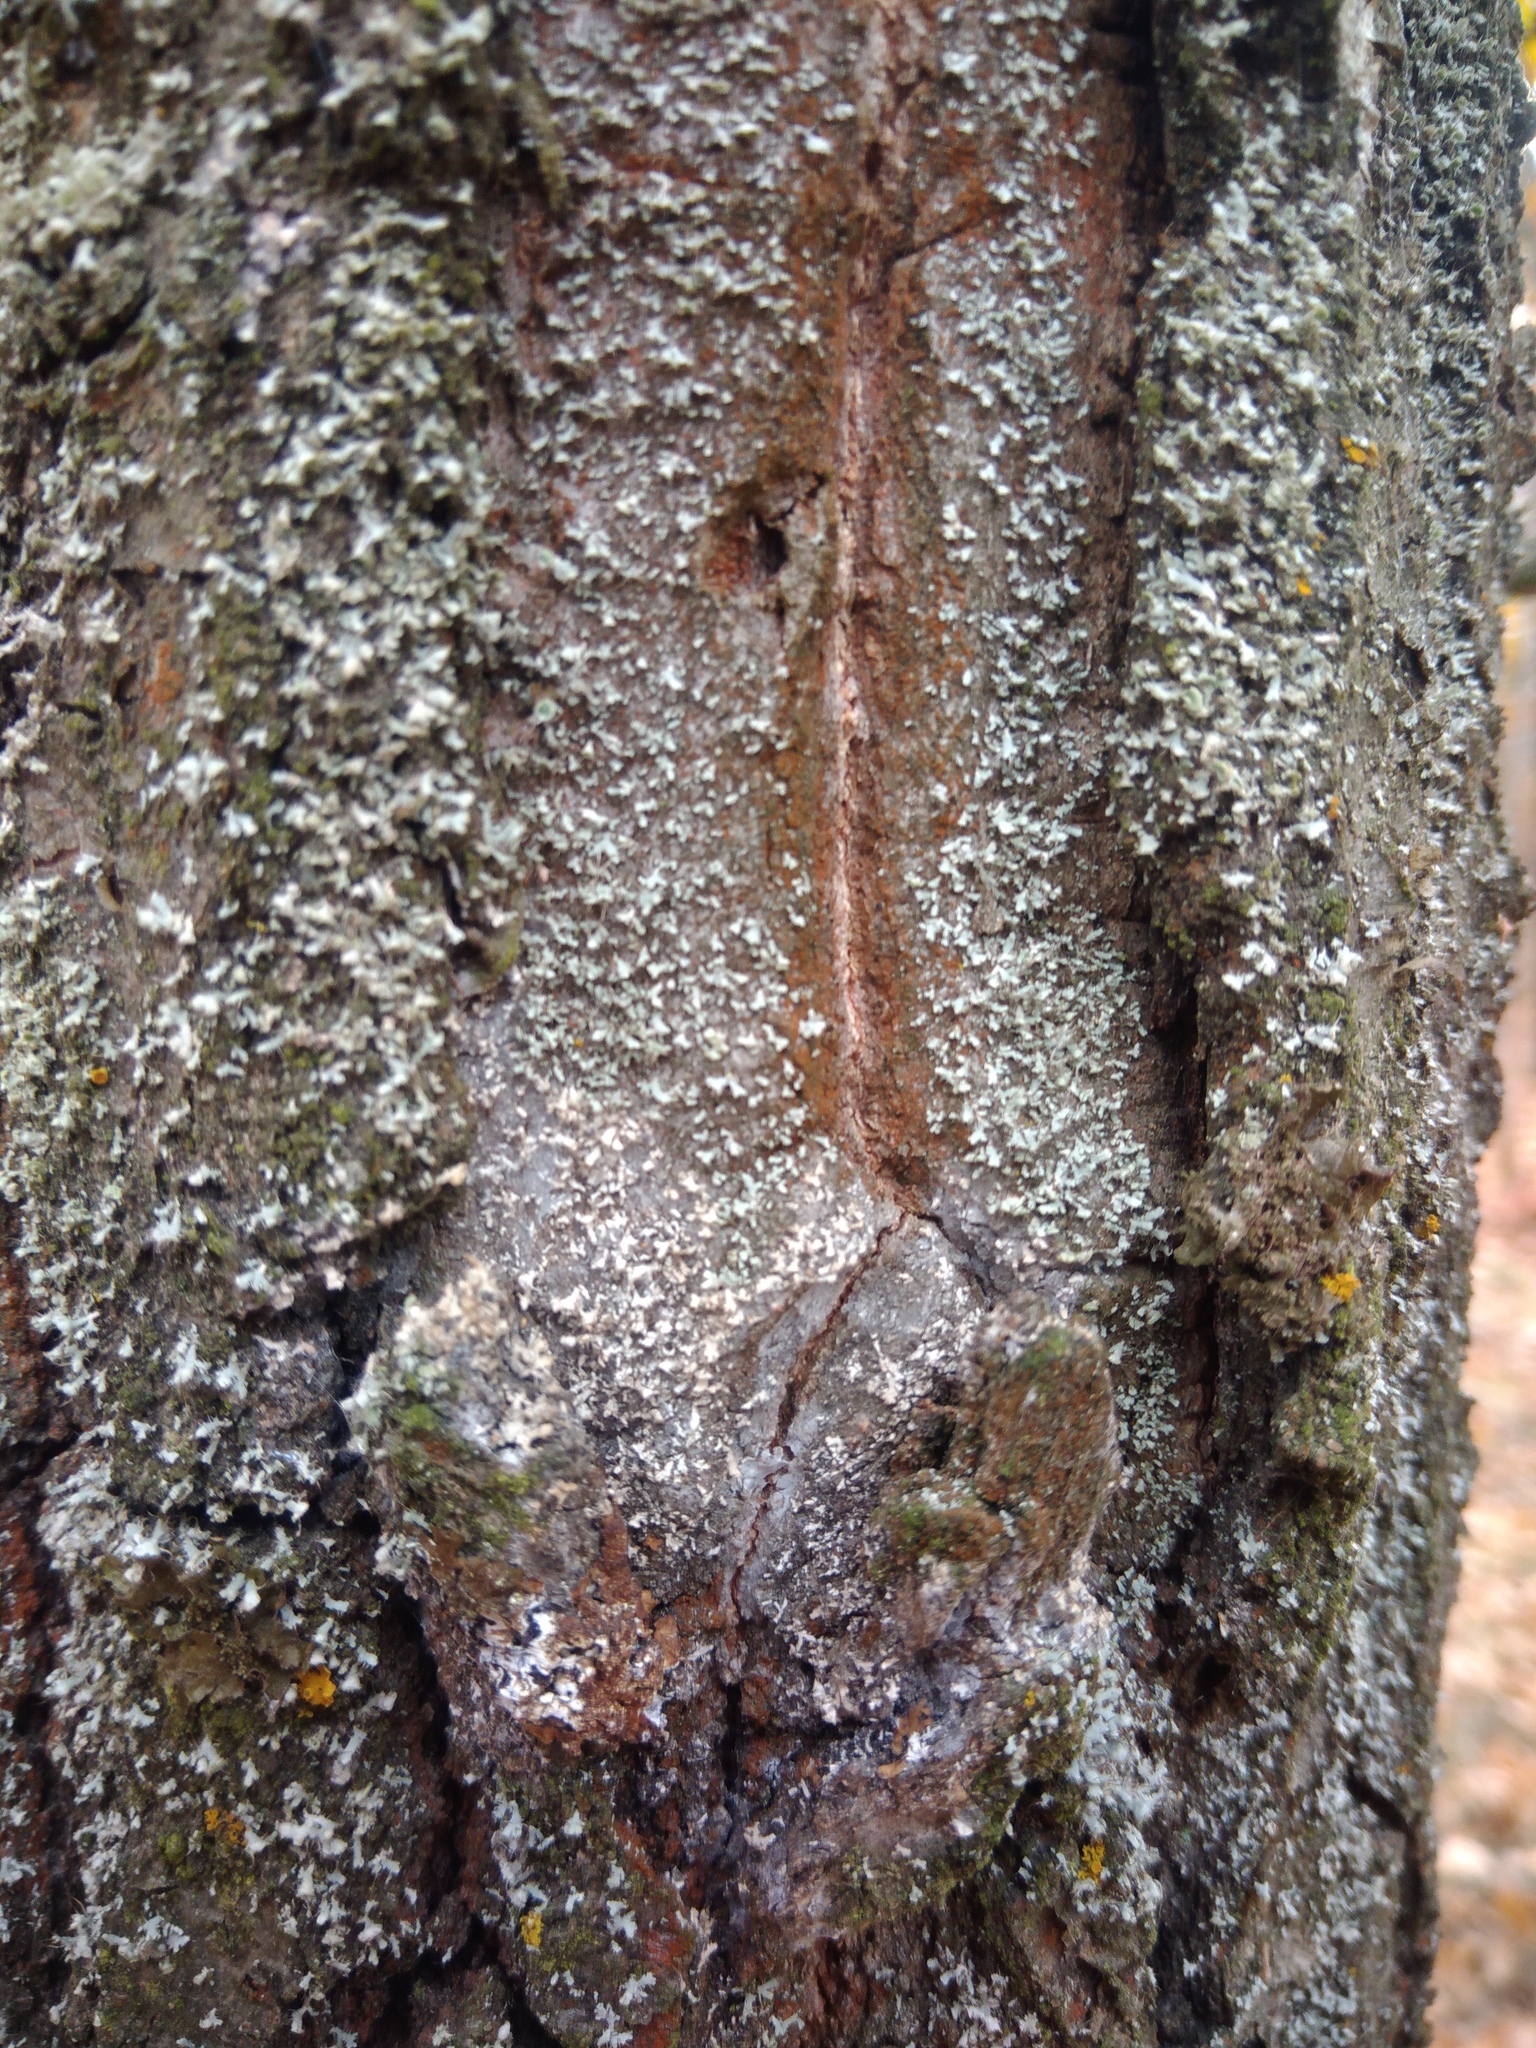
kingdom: Fungi
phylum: Basidiomycota
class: Agaricomycetes
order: Atheliales
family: Atheliaceae
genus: Athelia
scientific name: Athelia arachnoidea
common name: Candelabra duster
